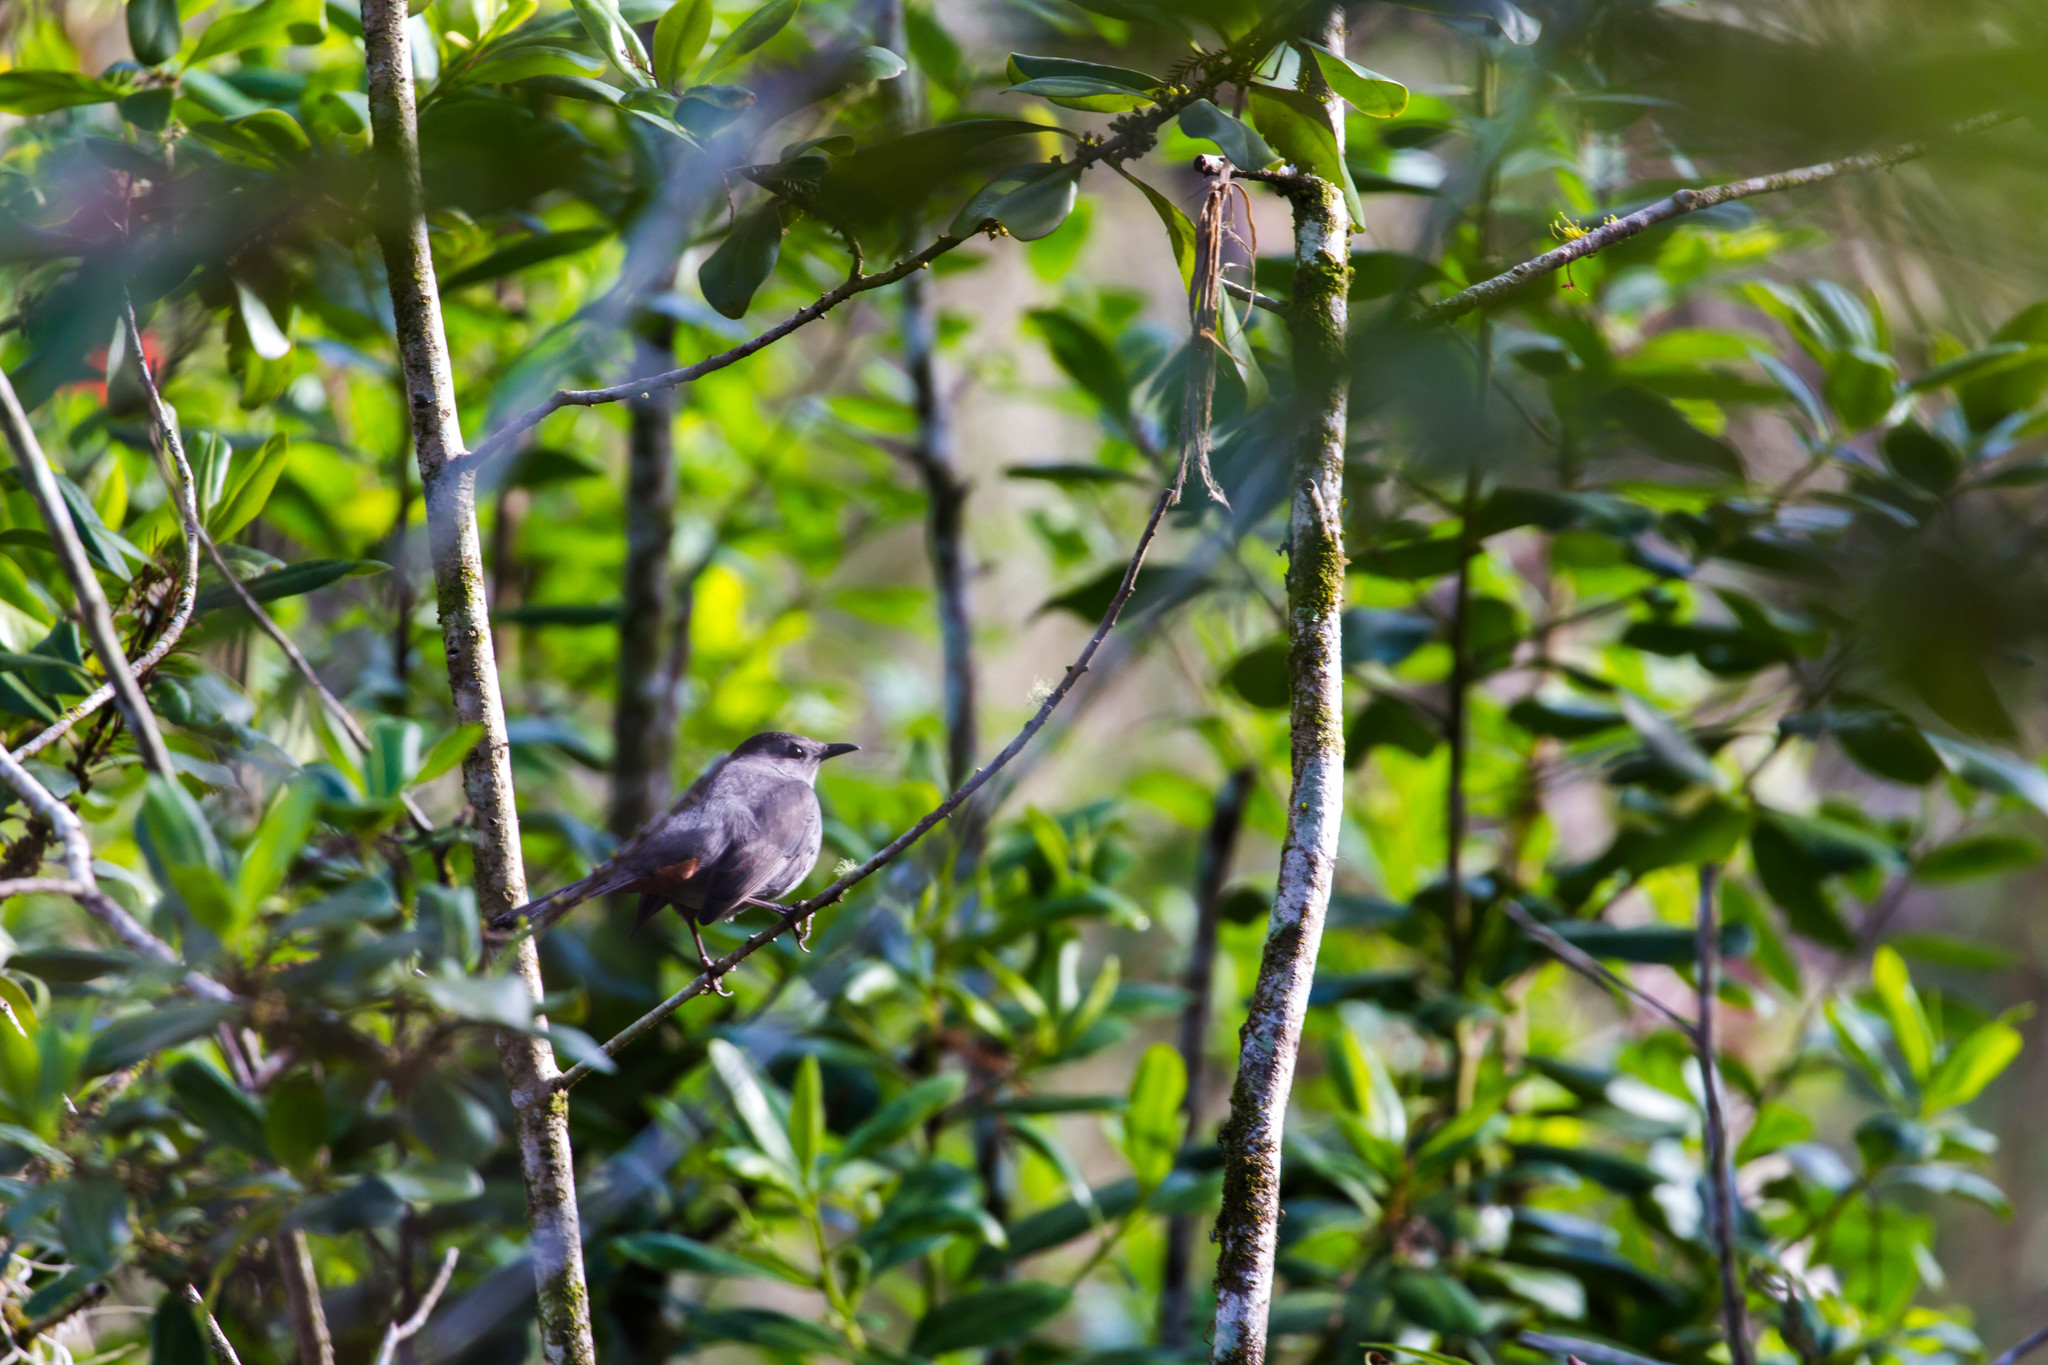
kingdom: Animalia
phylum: Chordata
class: Aves
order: Passeriformes
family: Mimidae
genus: Dumetella
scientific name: Dumetella carolinensis
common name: Gray catbird
